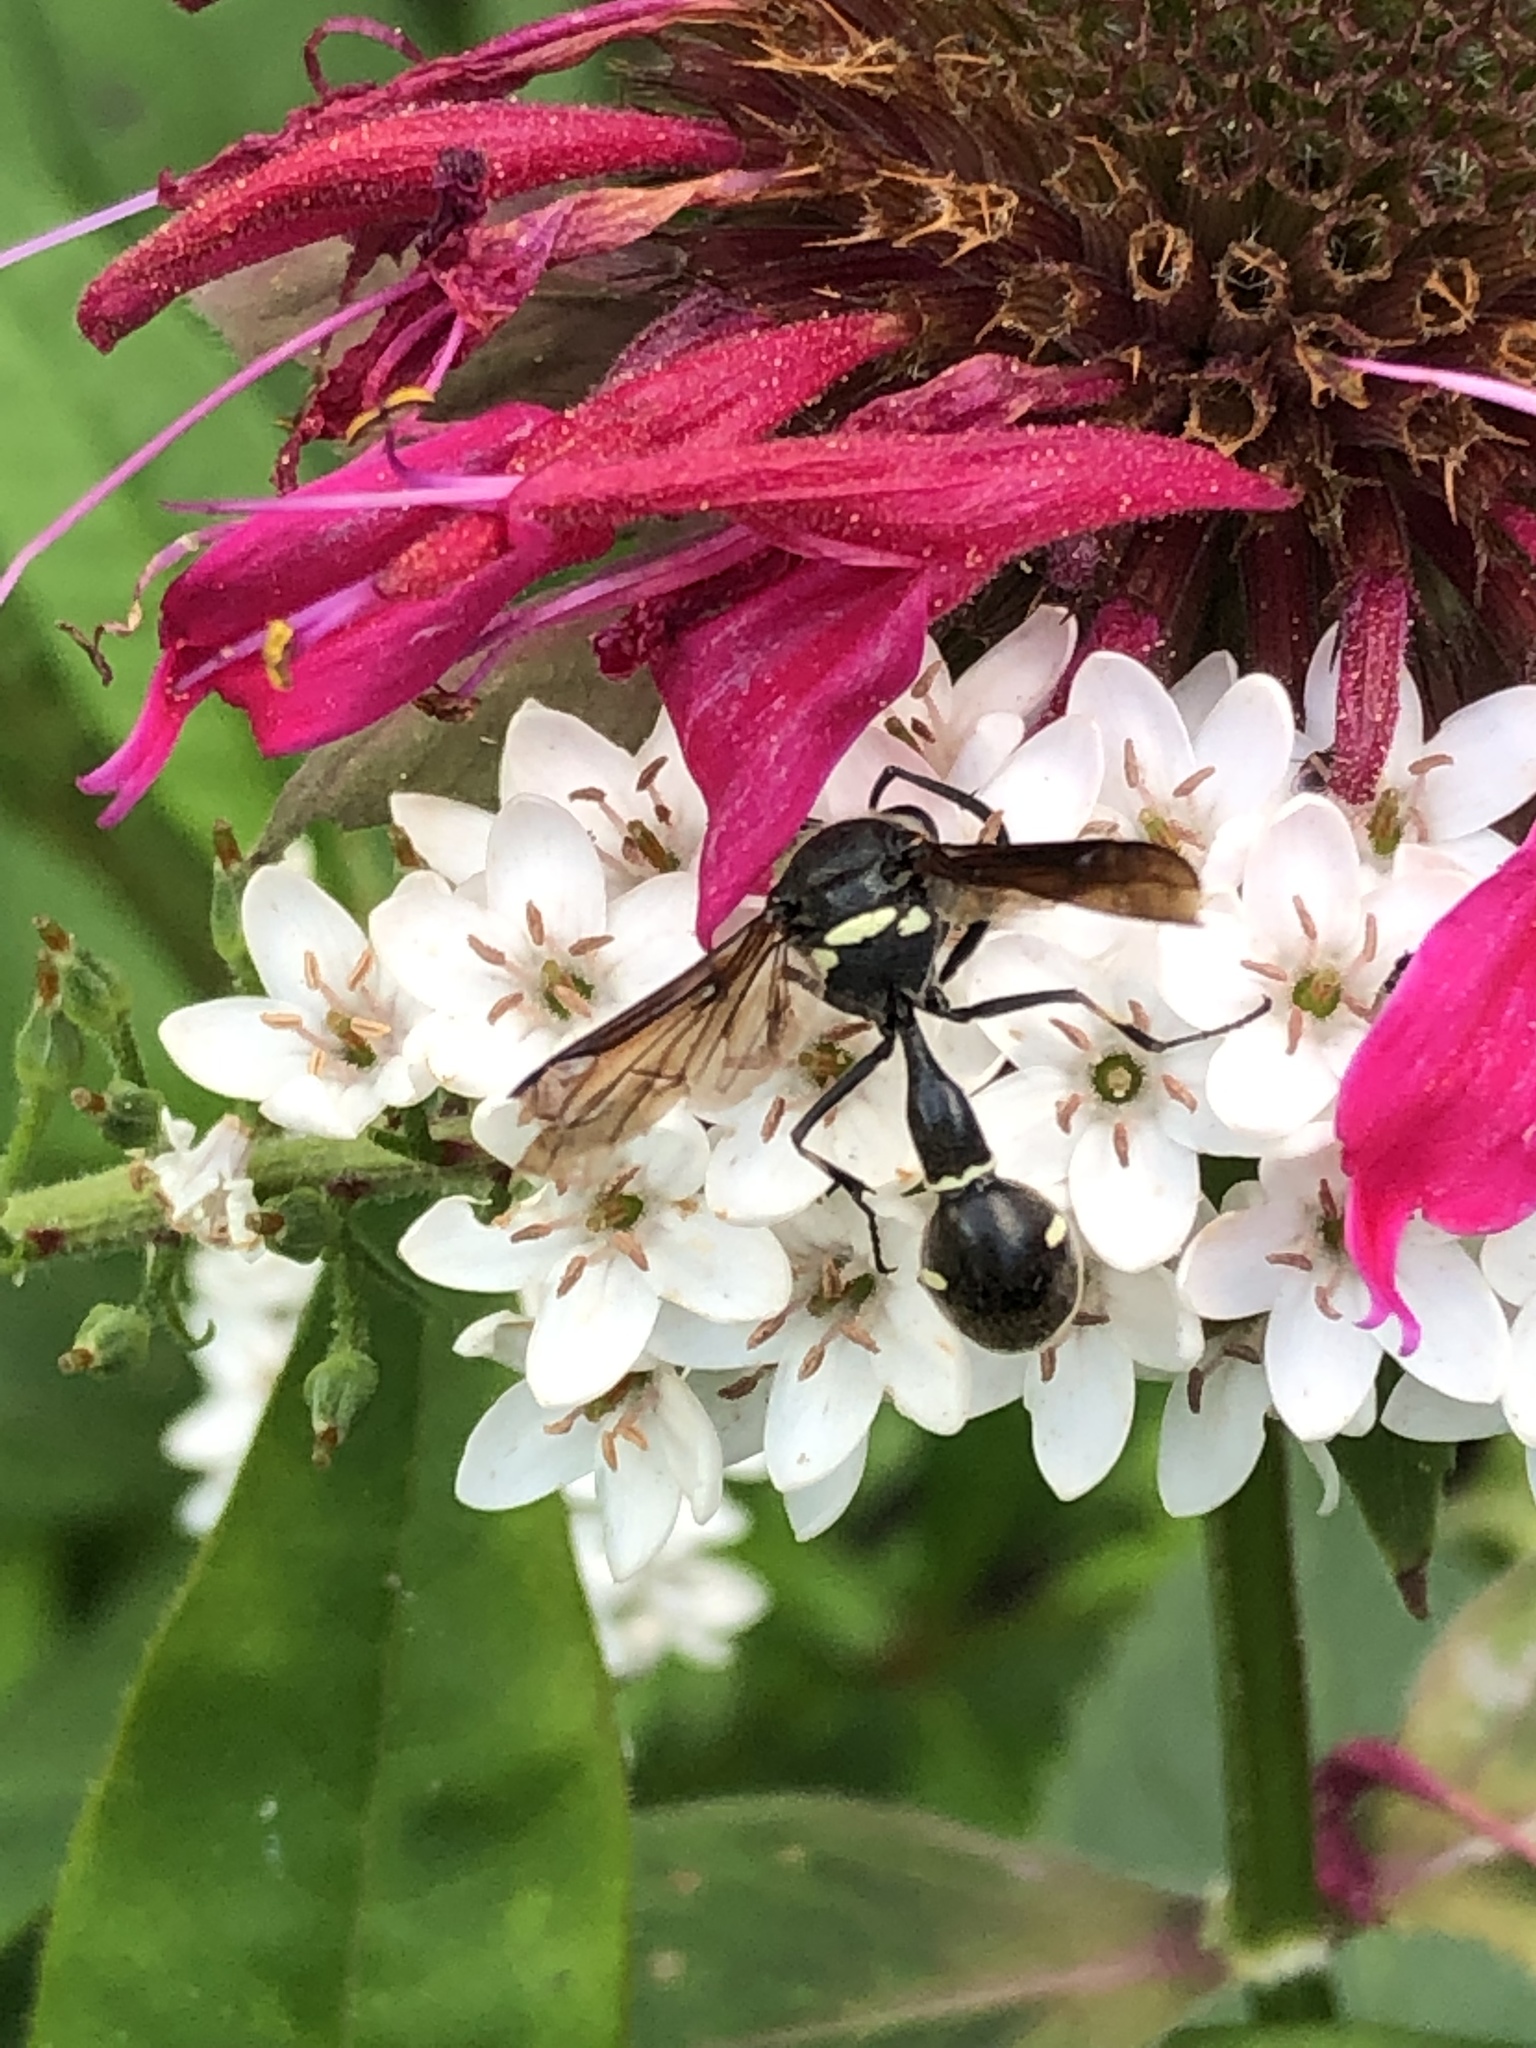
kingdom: Animalia
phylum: Arthropoda
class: Insecta
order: Hymenoptera
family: Vespidae
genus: Eumenes
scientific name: Eumenes fraternus
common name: Fraternal potter wasp
